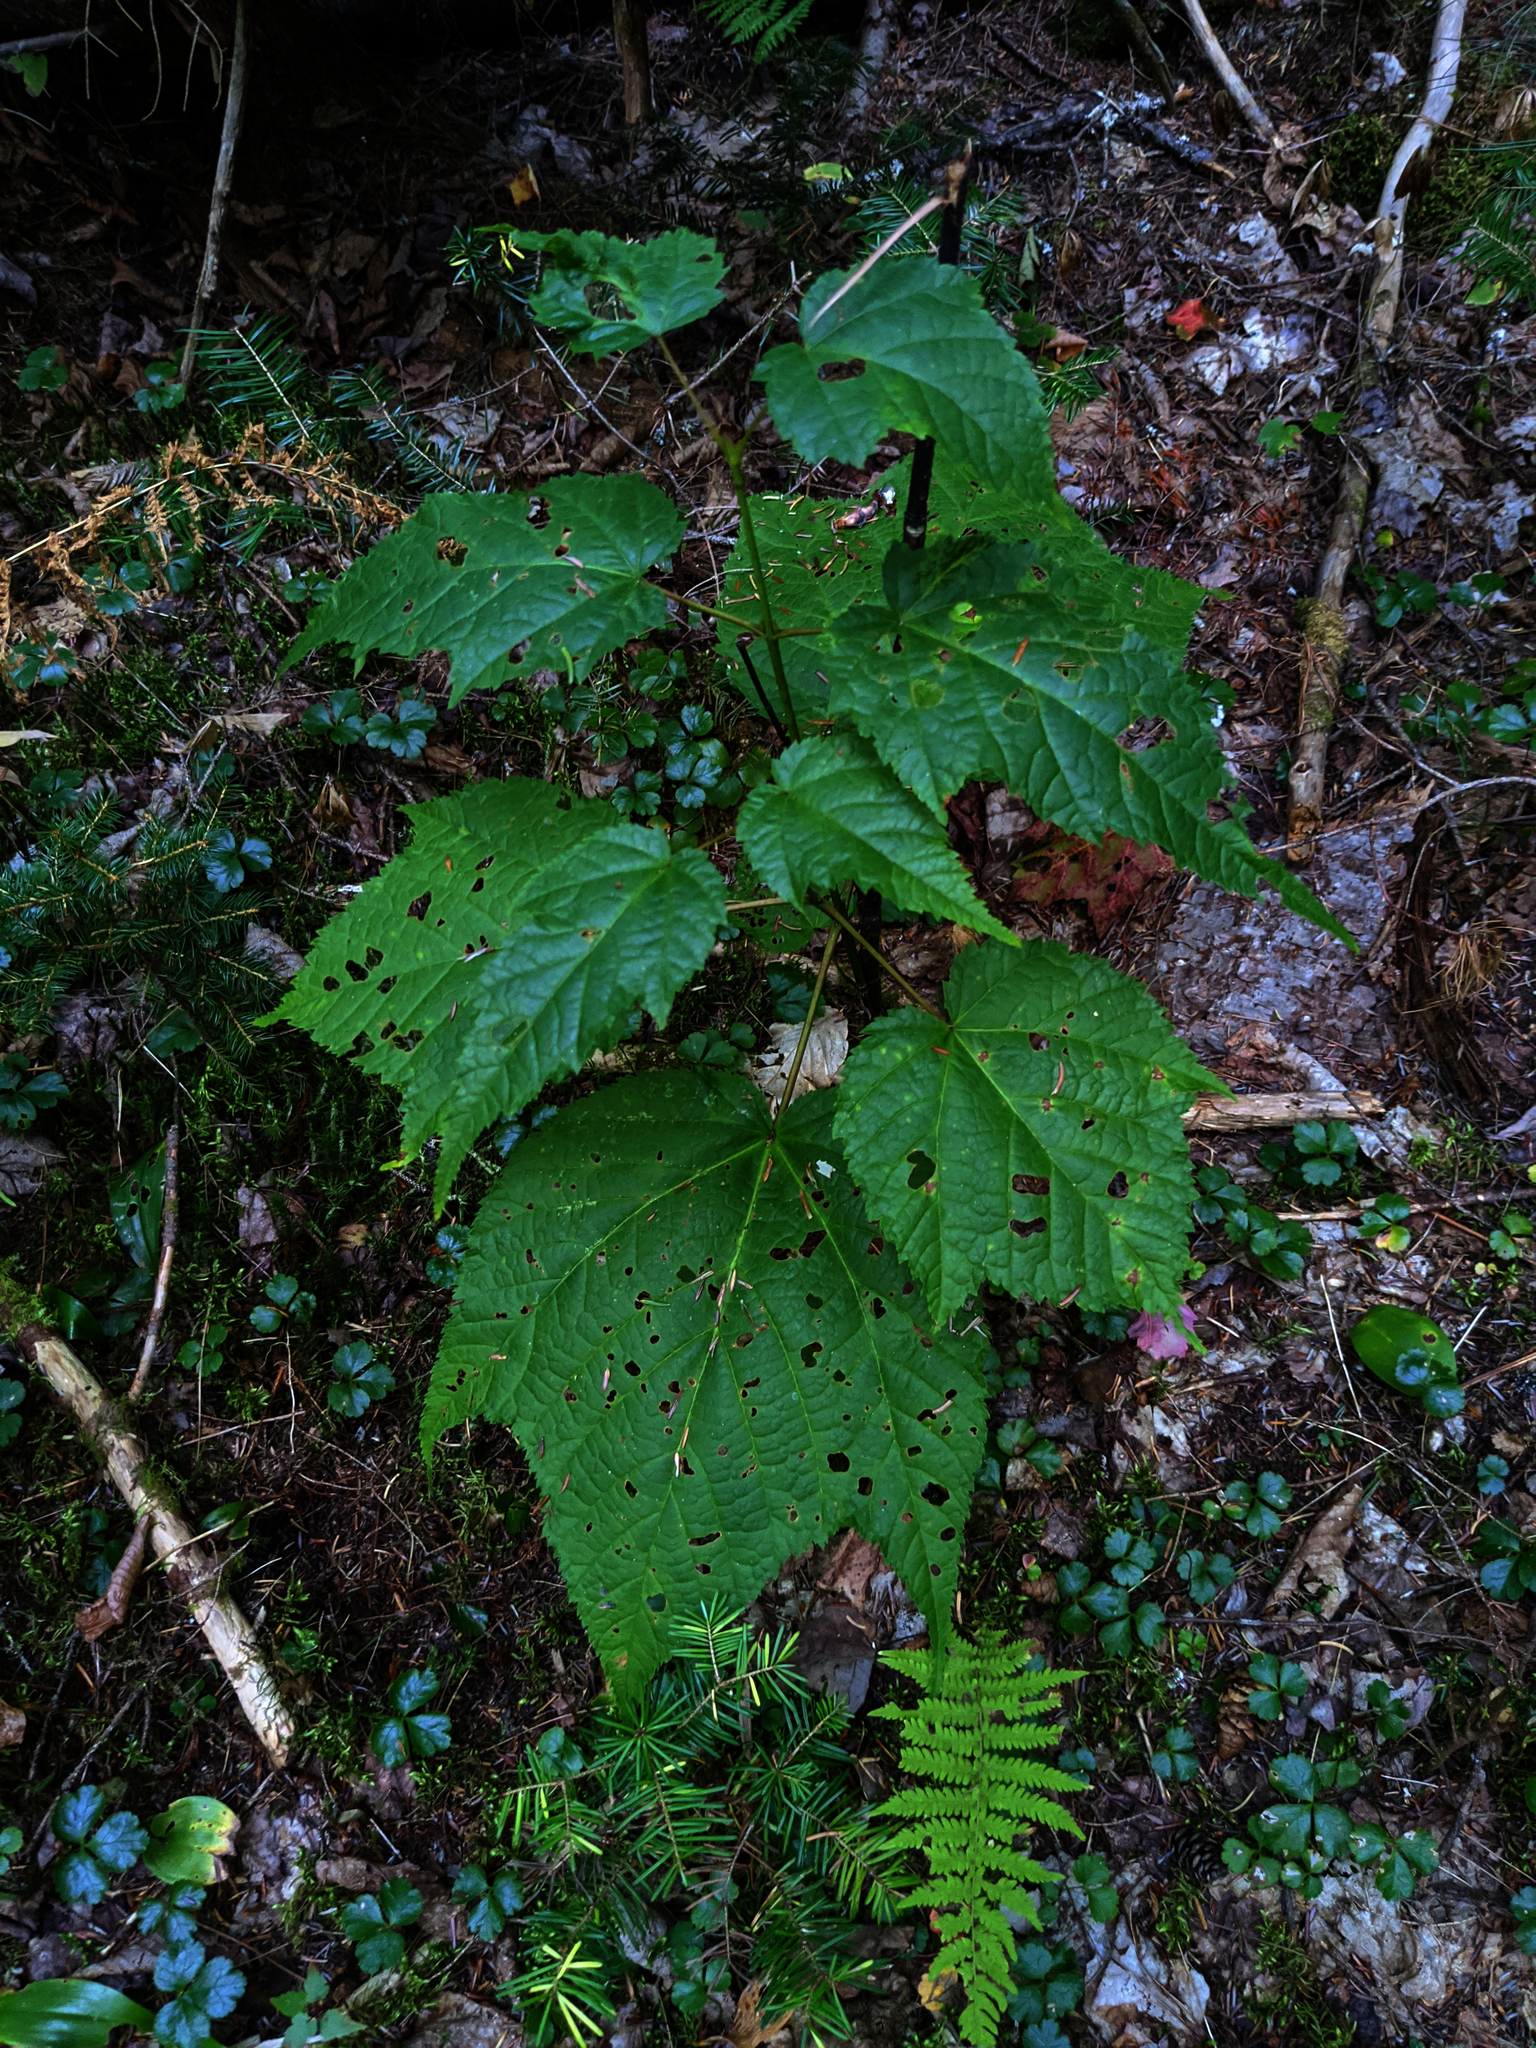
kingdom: Plantae
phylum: Tracheophyta
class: Magnoliopsida
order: Sapindales
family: Sapindaceae
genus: Acer
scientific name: Acer pensylvanicum
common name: Moosewood
